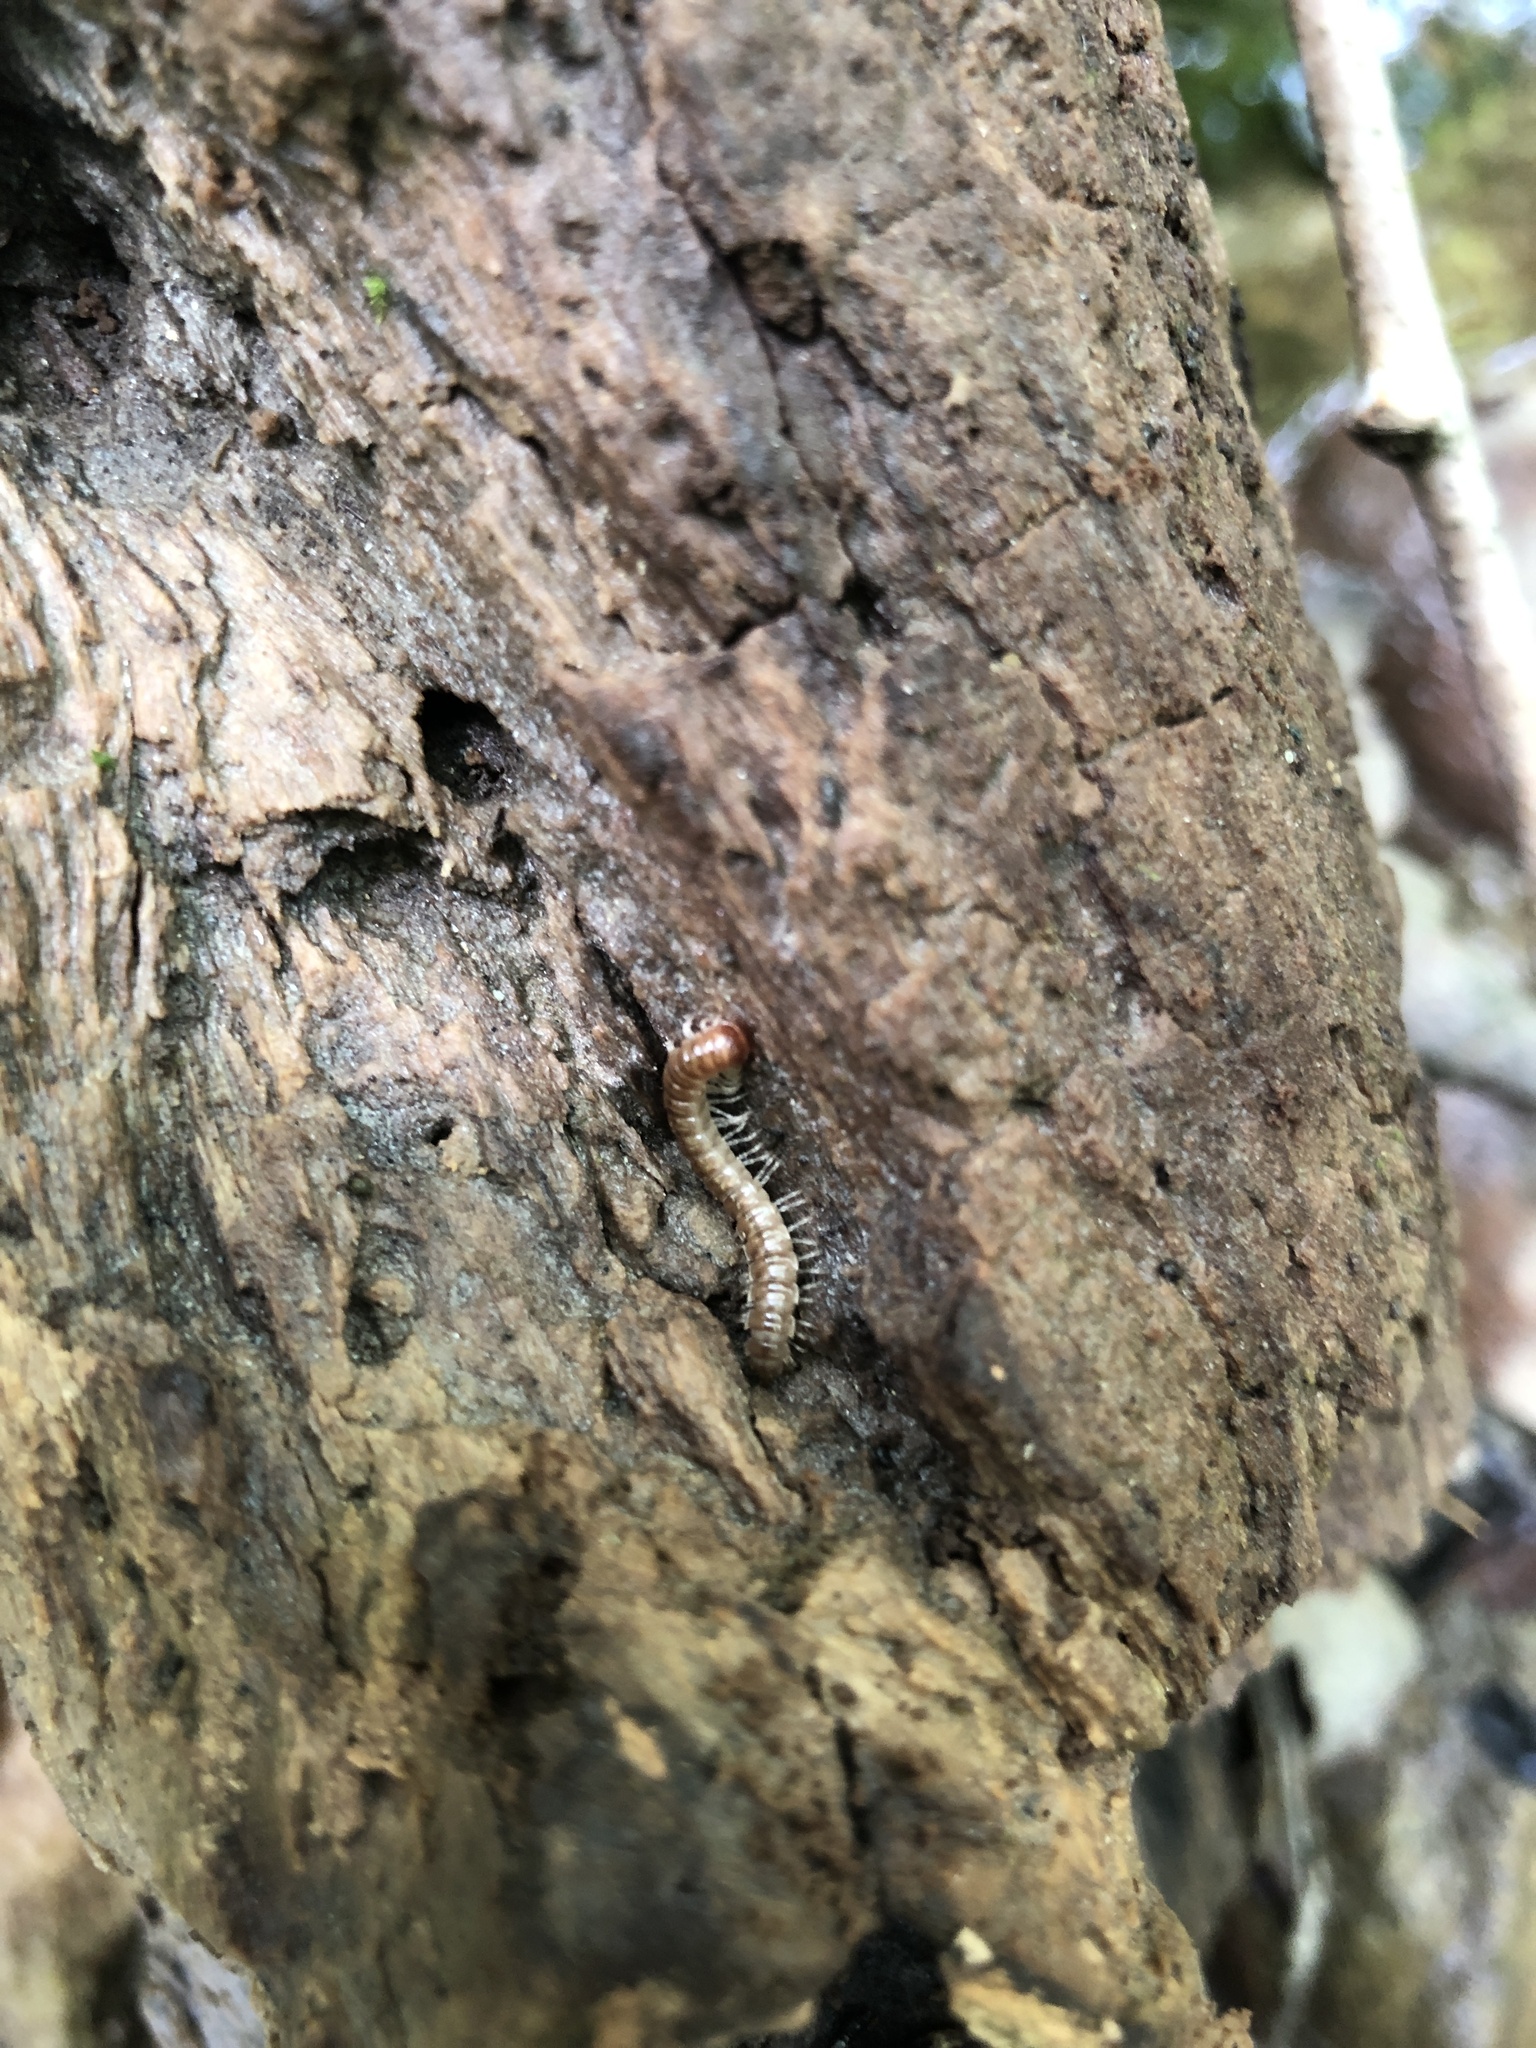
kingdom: Animalia
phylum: Arthropoda
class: Diplopoda
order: Polydesmida
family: Paradoxosomatidae
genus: Oxidus
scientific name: Oxidus gracilis
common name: Greenhouse millipede
